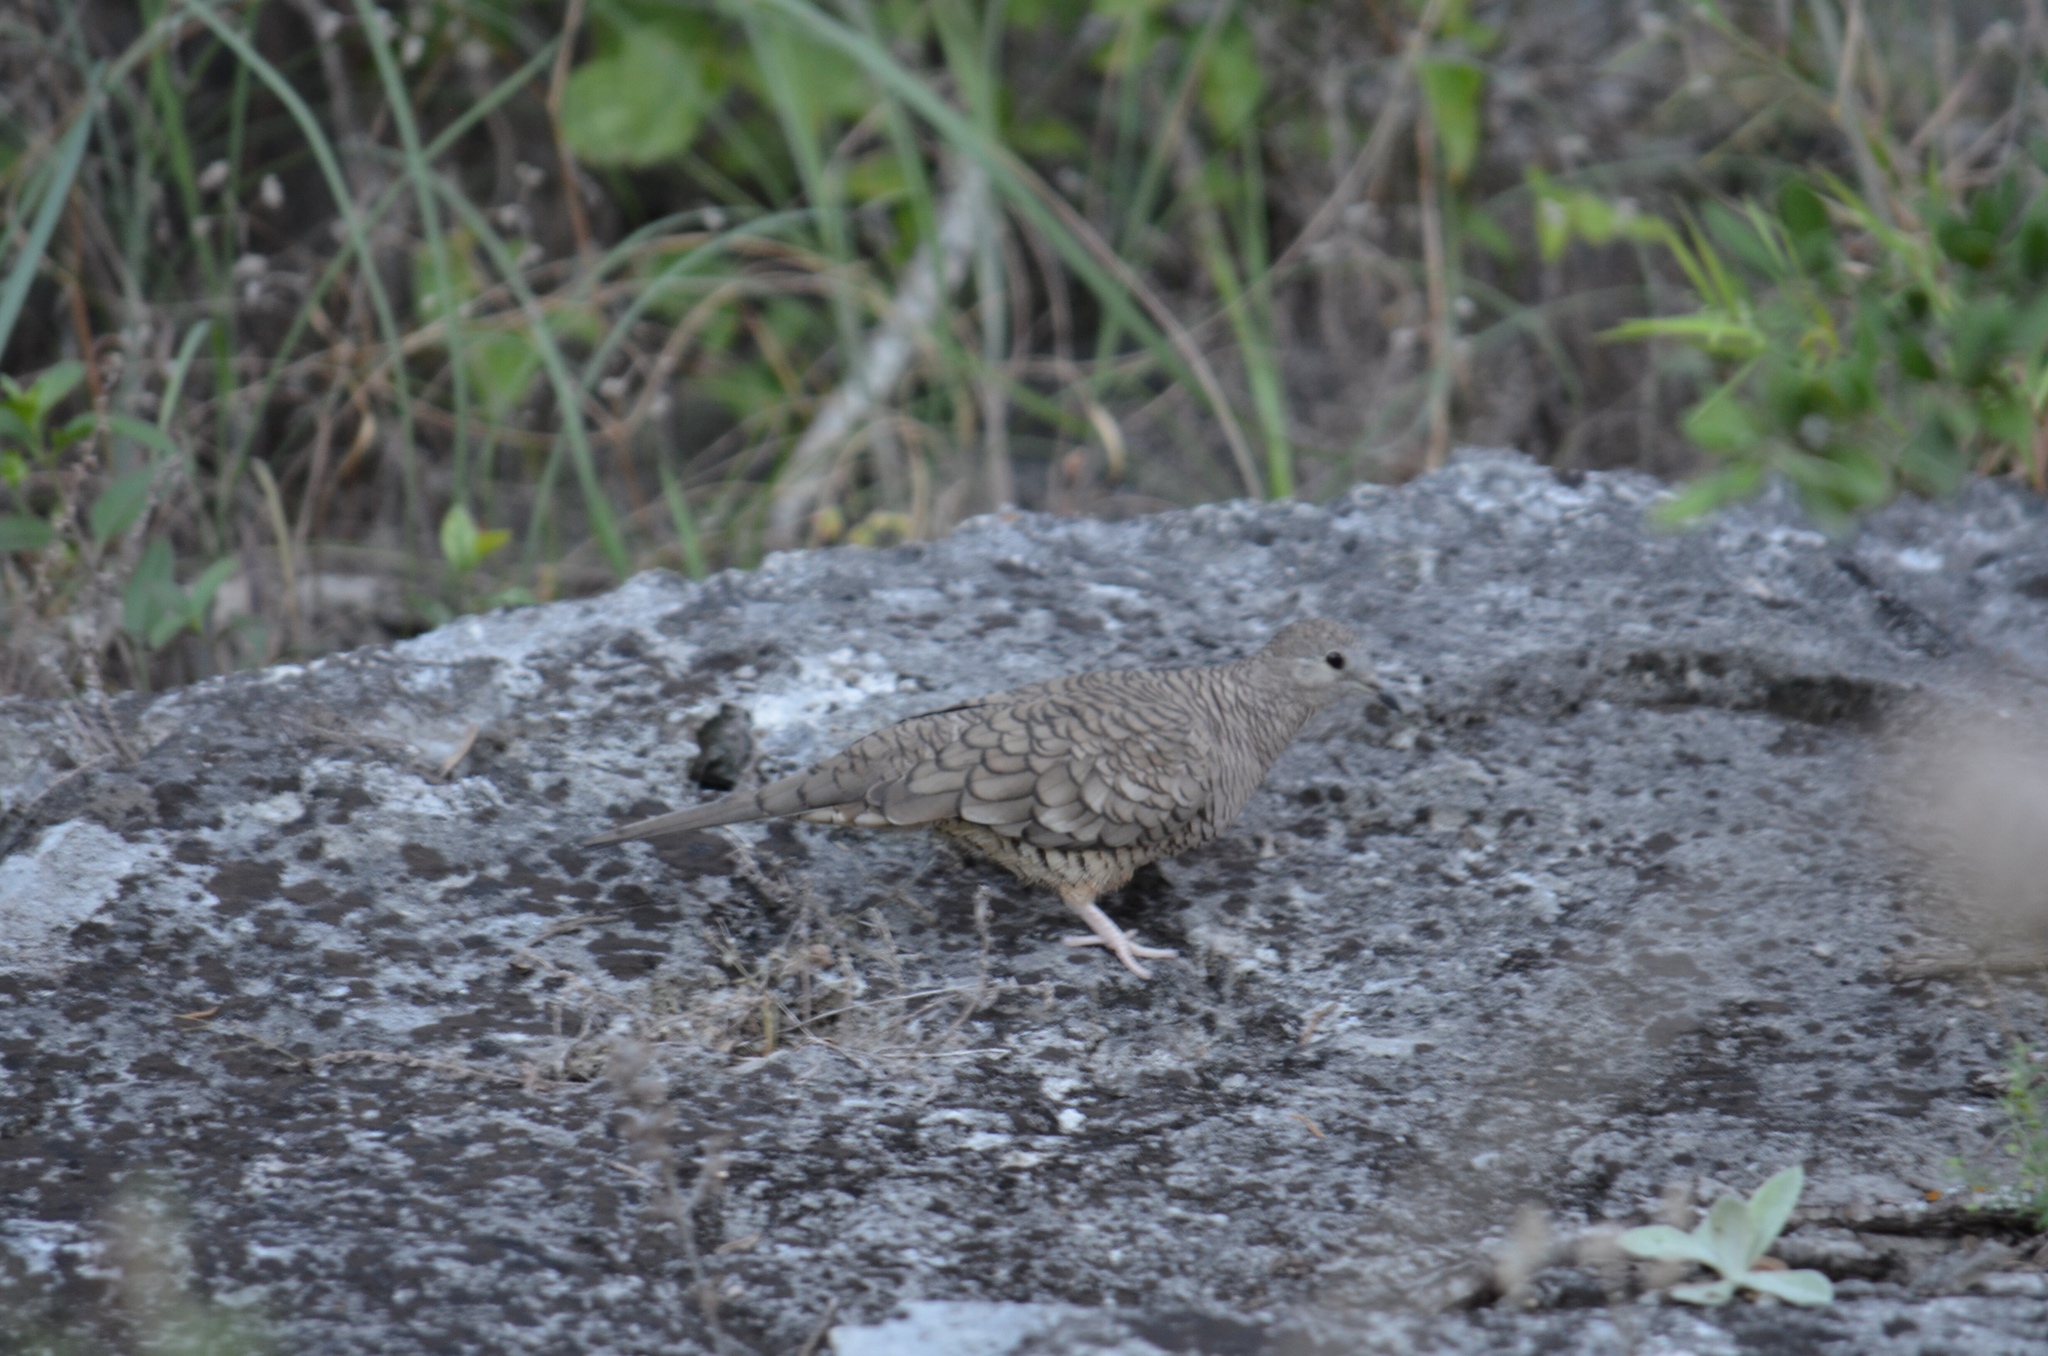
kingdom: Animalia
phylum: Chordata
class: Aves
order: Columbiformes
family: Columbidae
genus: Columbina
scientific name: Columbina inca
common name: Inca dove
